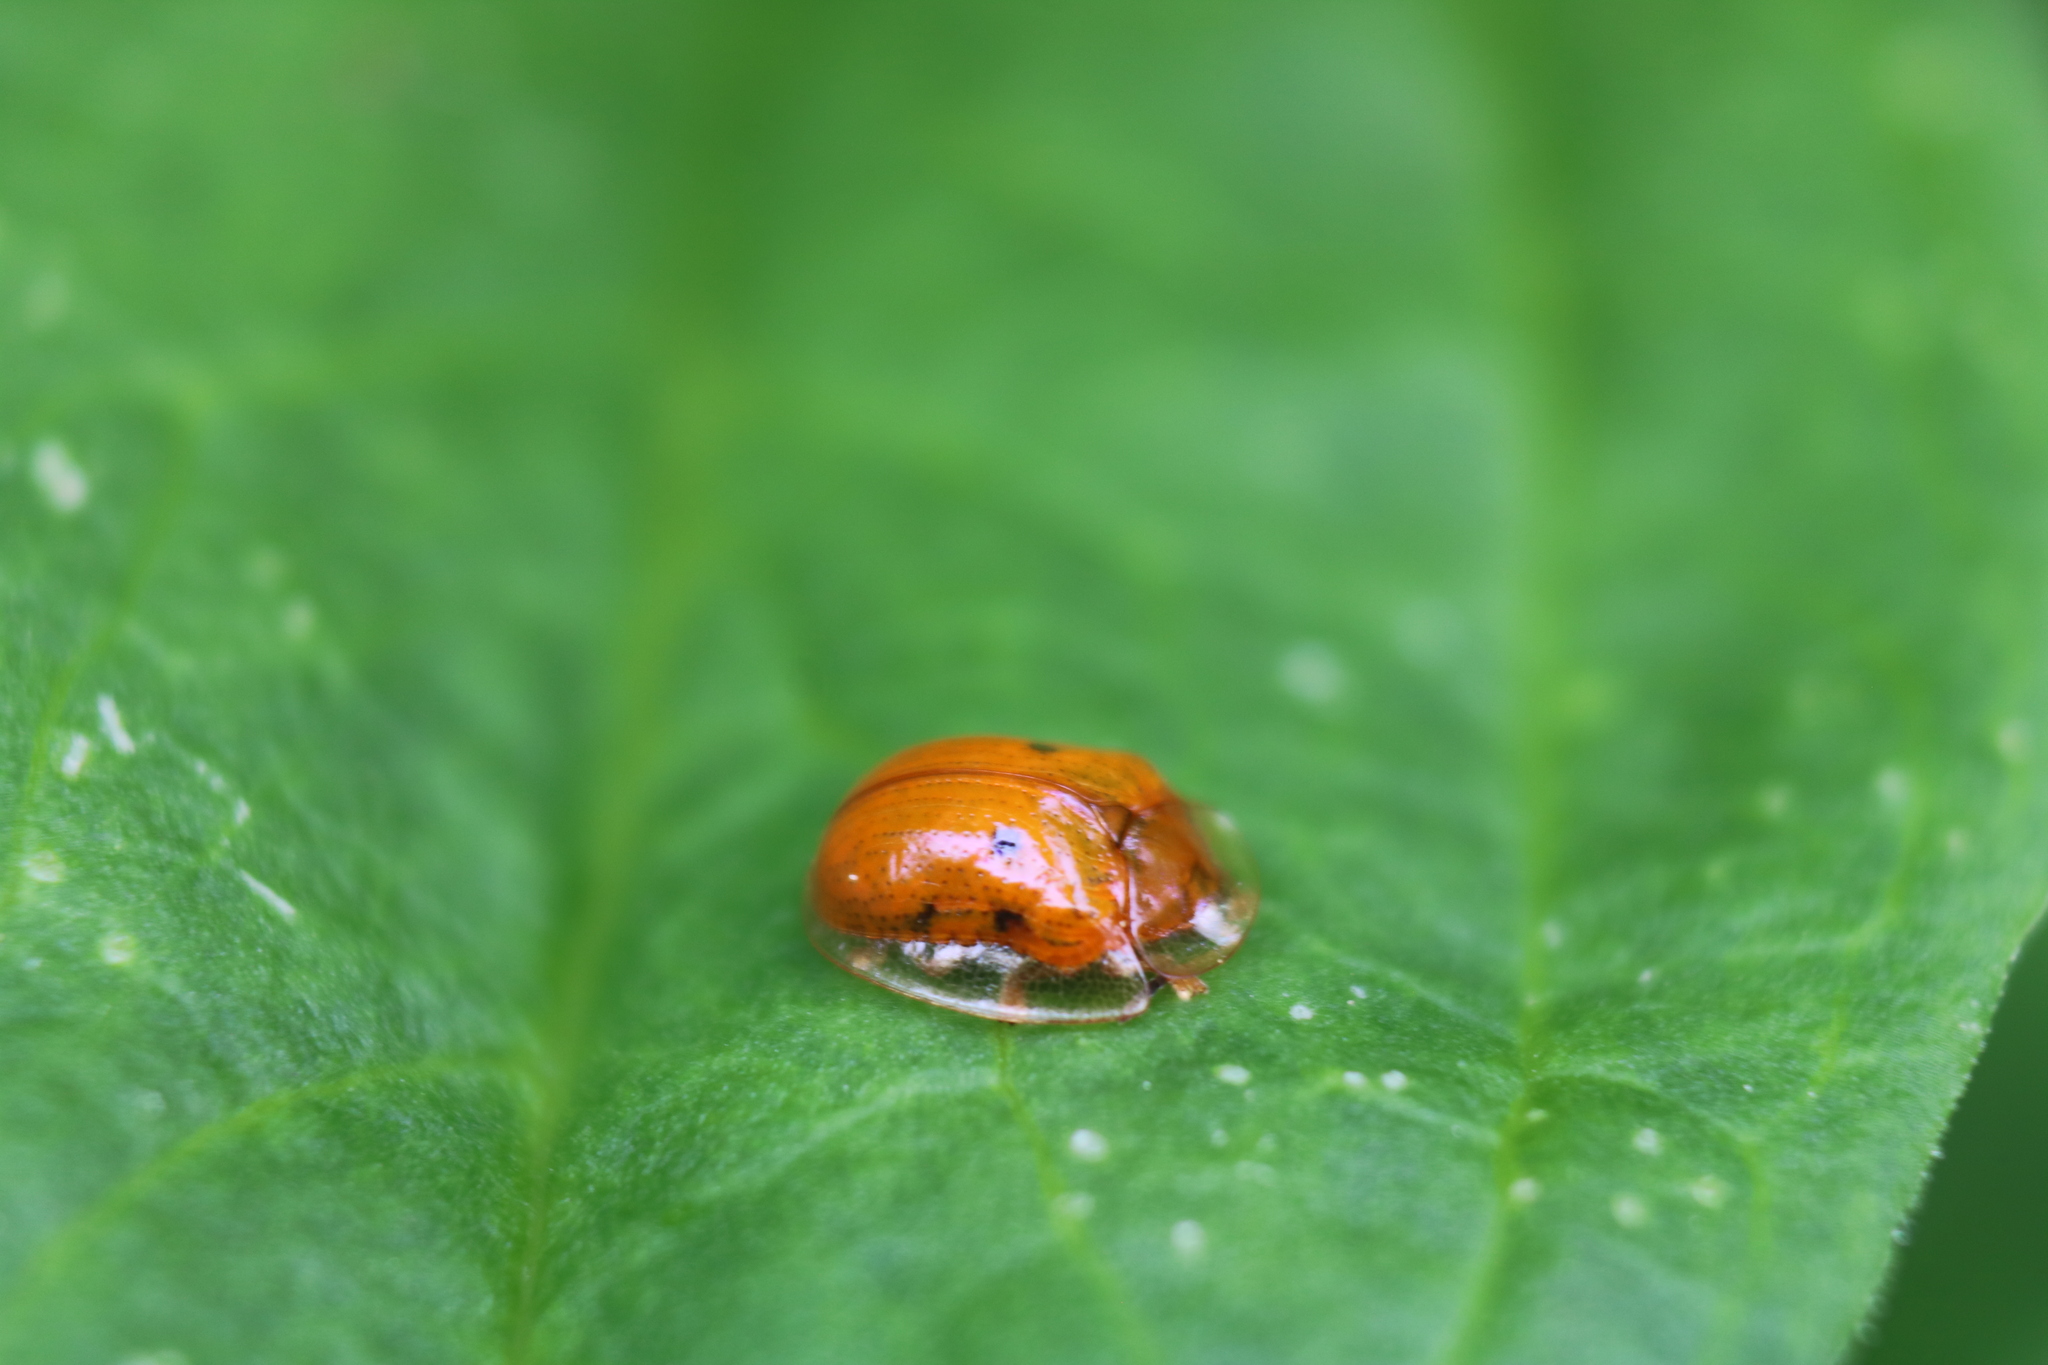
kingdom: Animalia
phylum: Arthropoda
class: Insecta
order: Coleoptera
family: Chrysomelidae
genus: Charidotella
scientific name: Charidotella sexpunctata
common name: Golden tortoise beetle
